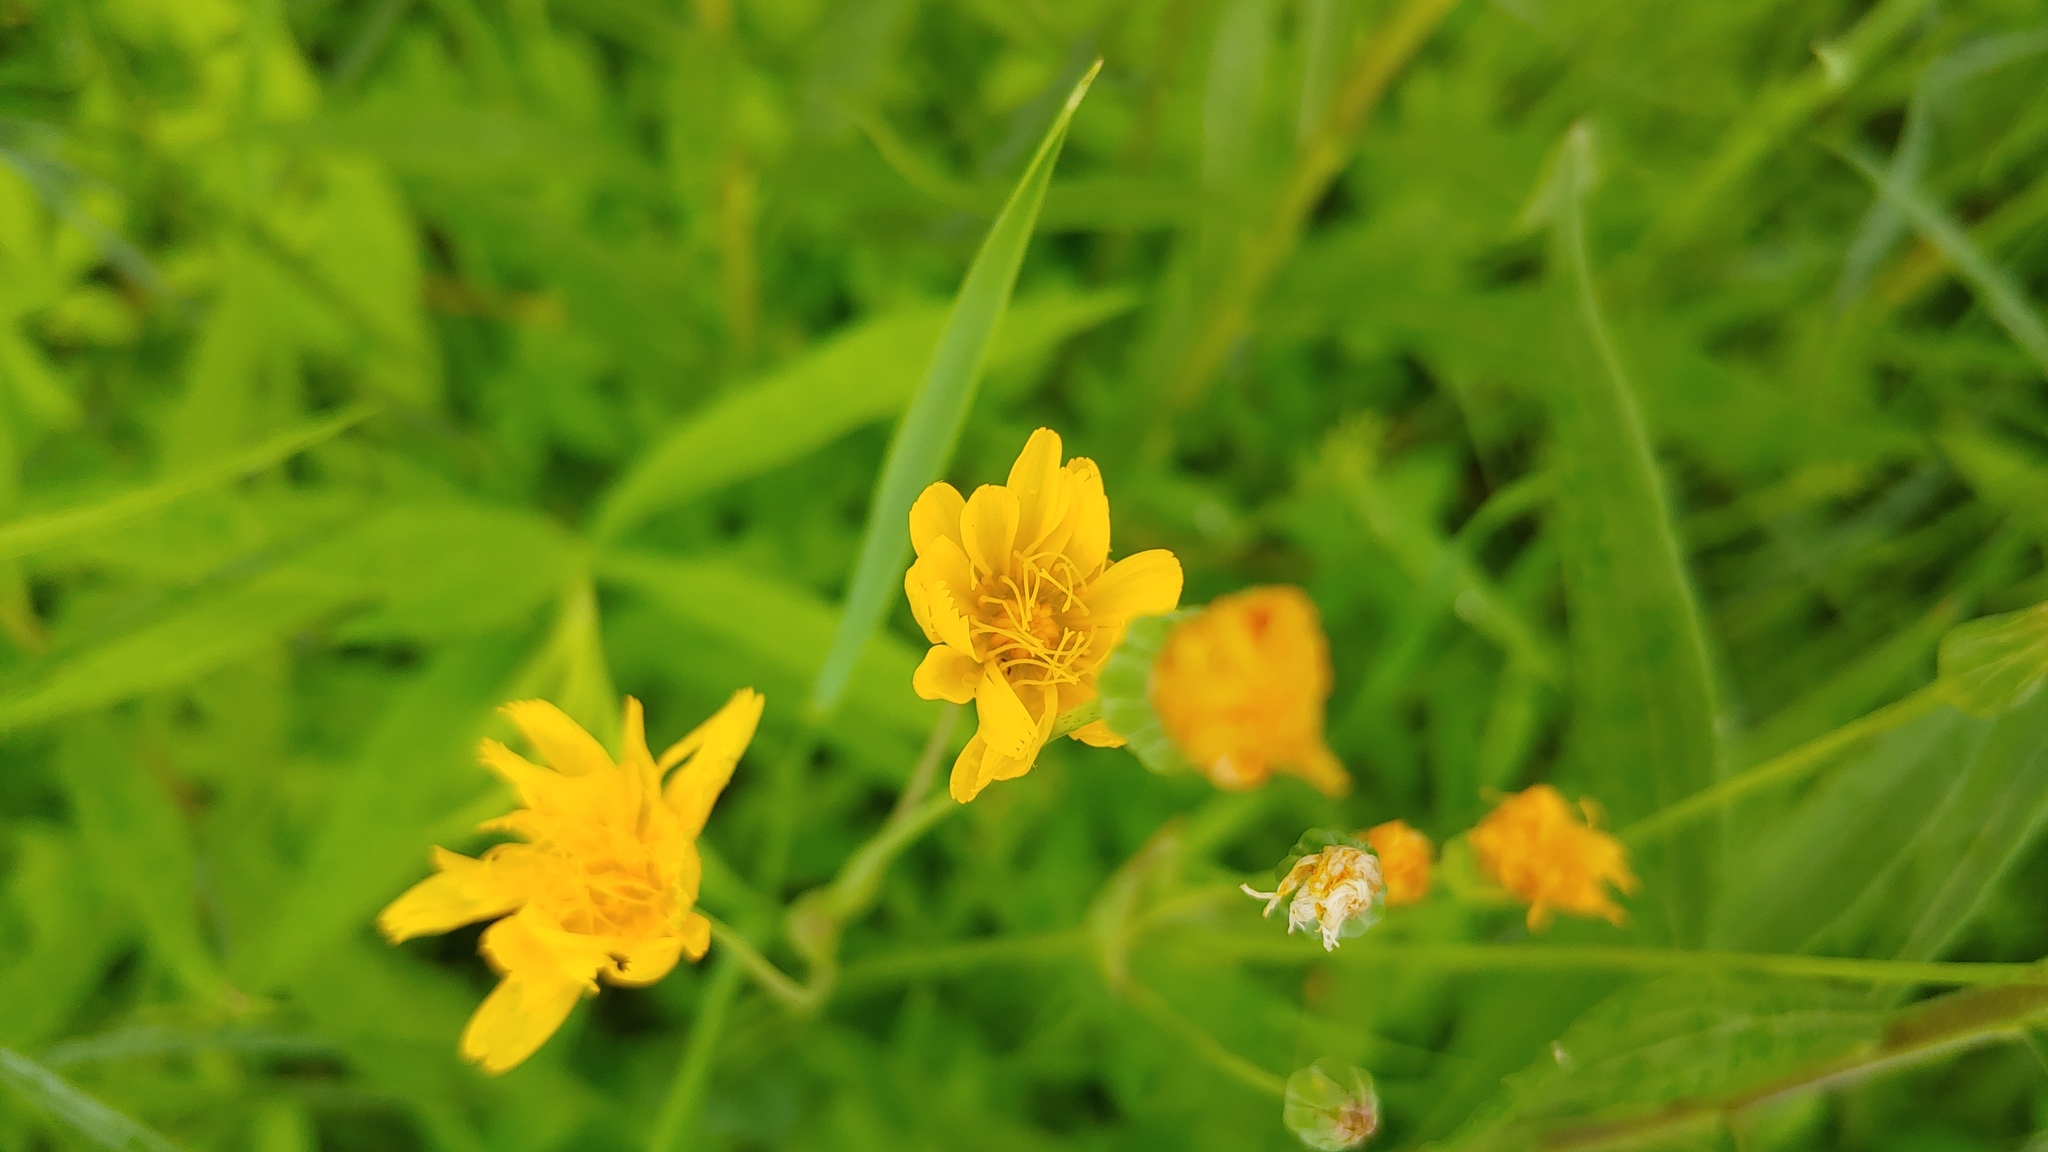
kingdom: Plantae
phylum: Tracheophyta
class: Magnoliopsida
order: Asterales
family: Asteraceae
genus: Krigia
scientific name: Krigia biflora
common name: Orange dwarf-dandelion
